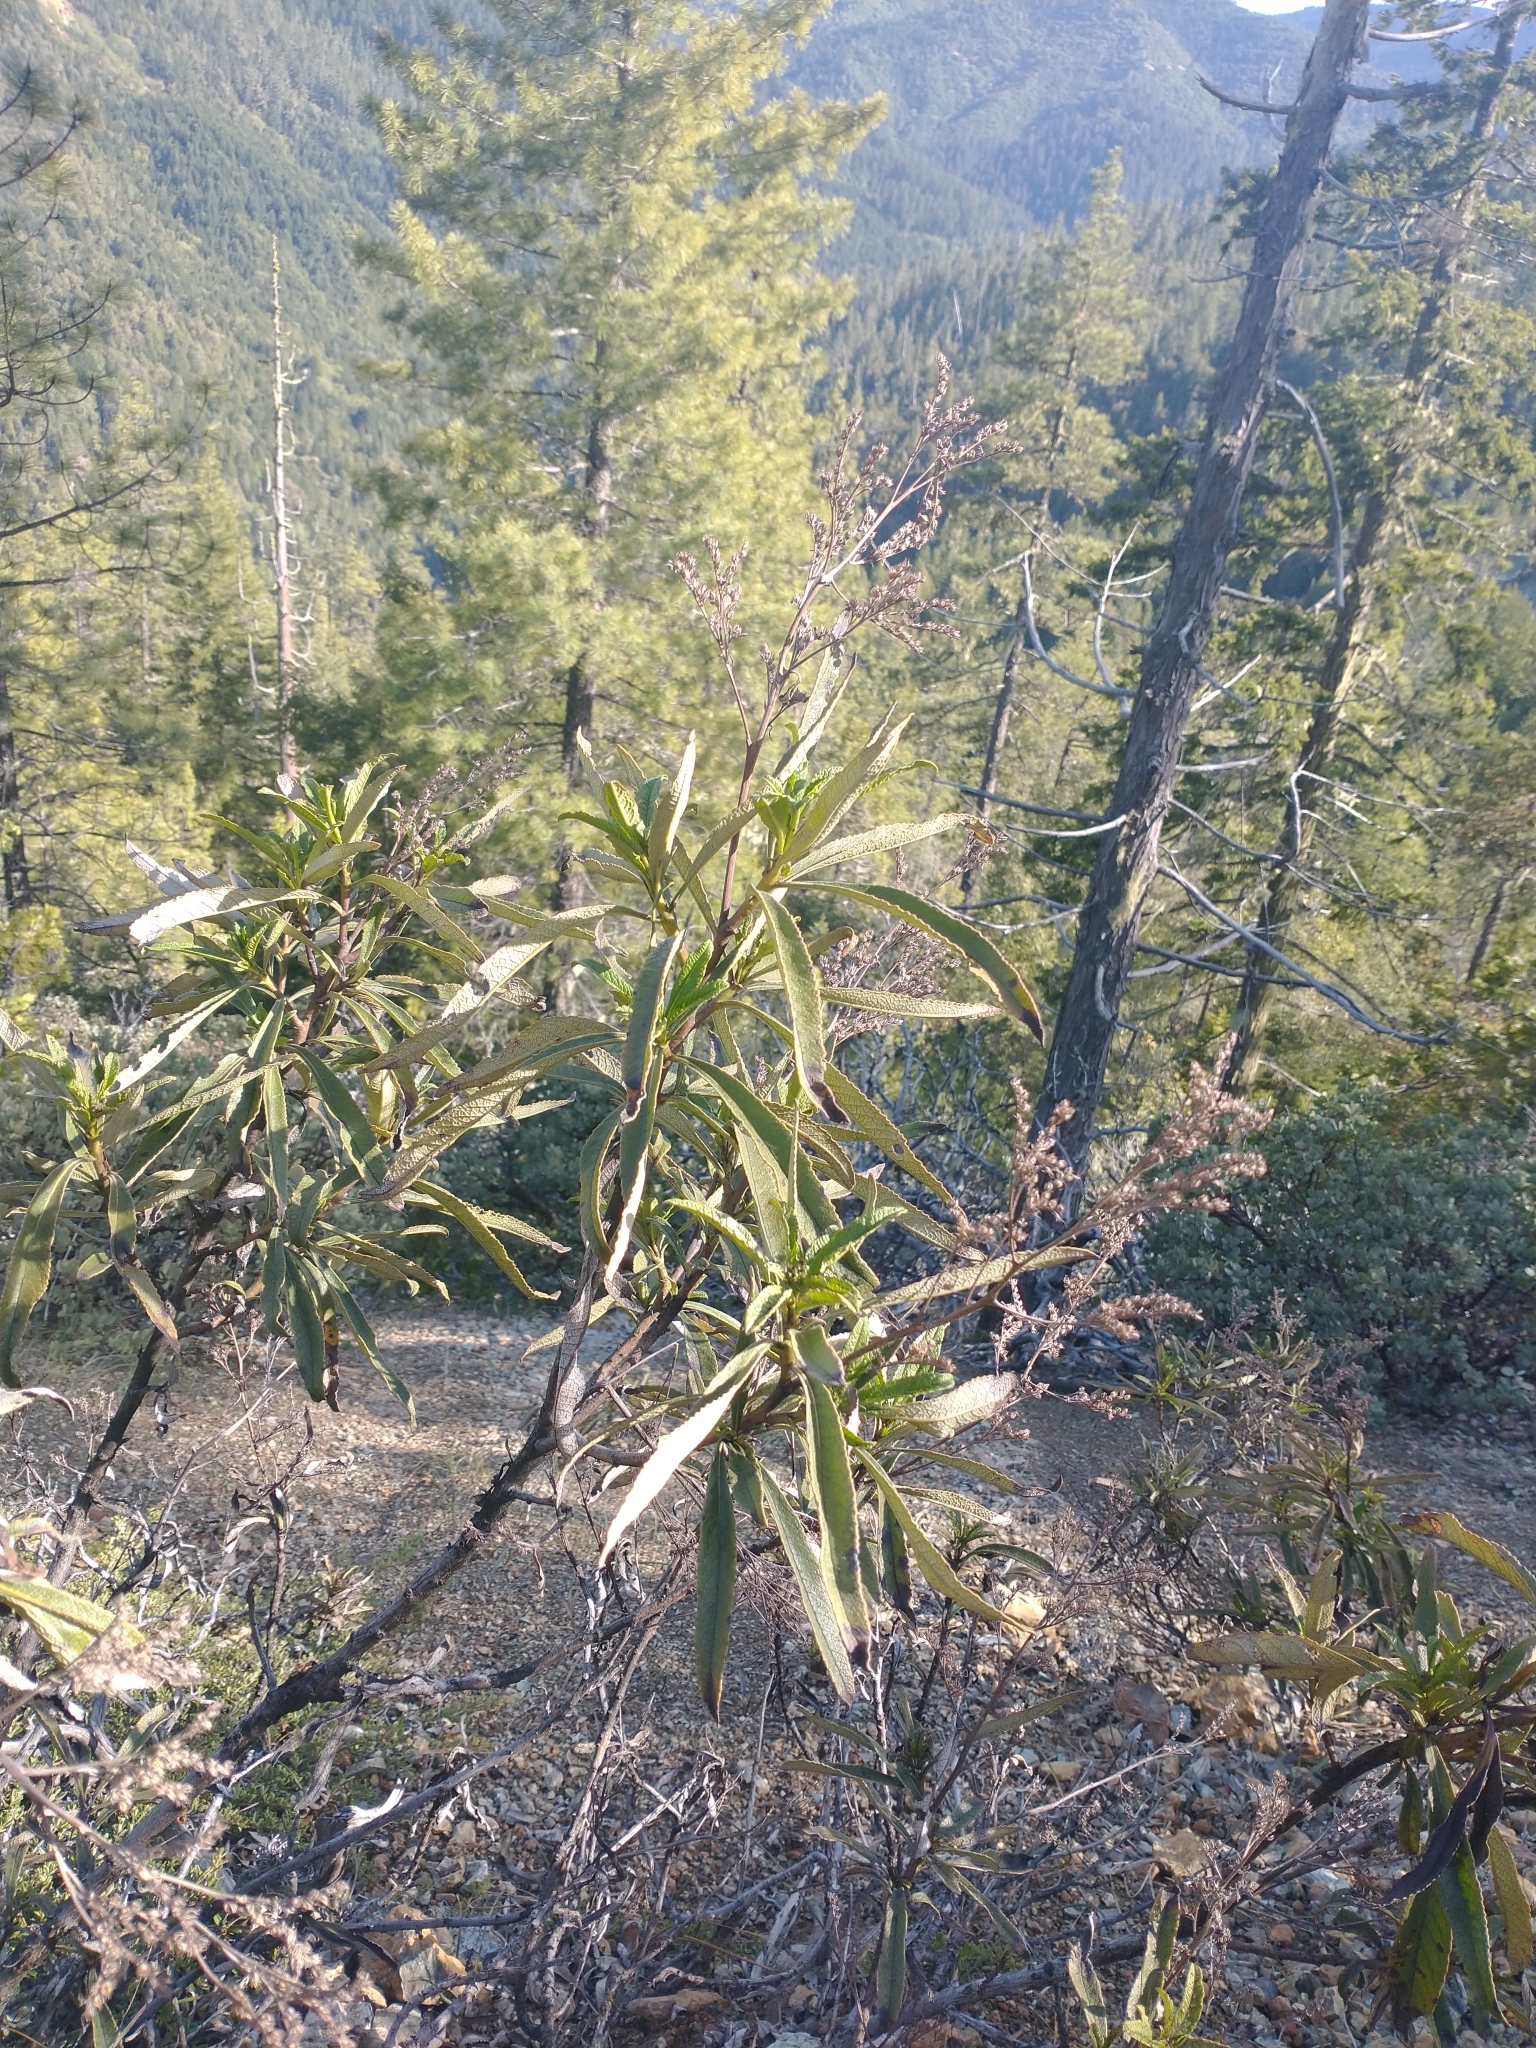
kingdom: Plantae
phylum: Tracheophyta
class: Magnoliopsida
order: Boraginales
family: Namaceae
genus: Eriodictyon
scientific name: Eriodictyon californicum
